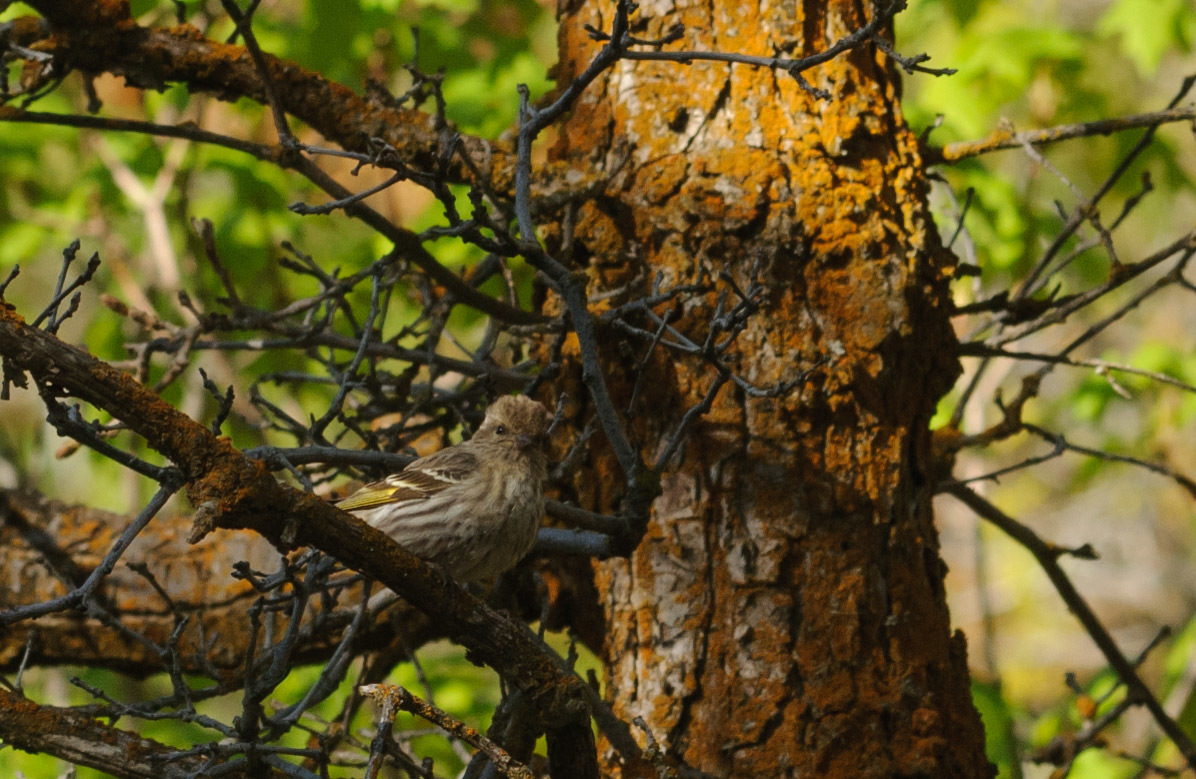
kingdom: Animalia
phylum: Chordata
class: Aves
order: Passeriformes
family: Fringillidae
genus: Spinus
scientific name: Spinus pinus
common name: Pine siskin
